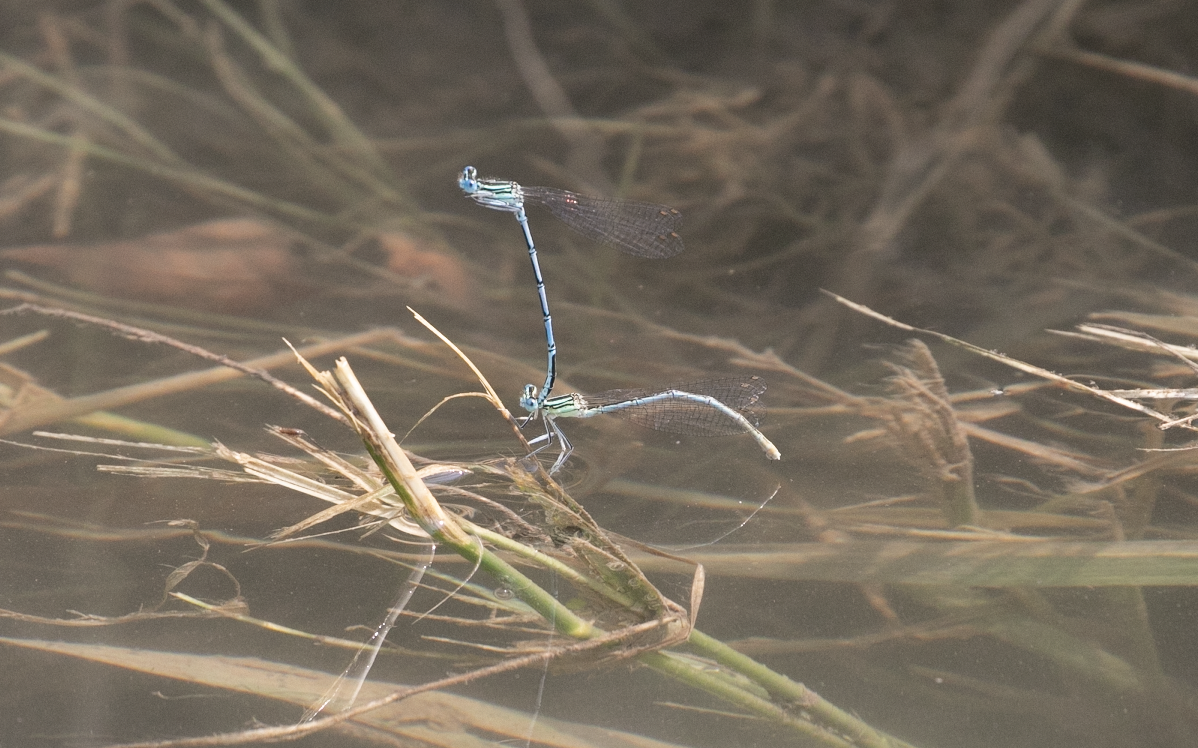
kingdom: Animalia
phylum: Arthropoda
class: Insecta
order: Odonata
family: Platycnemididae
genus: Platycnemis
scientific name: Platycnemis pennipes
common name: White-legged damselfly
